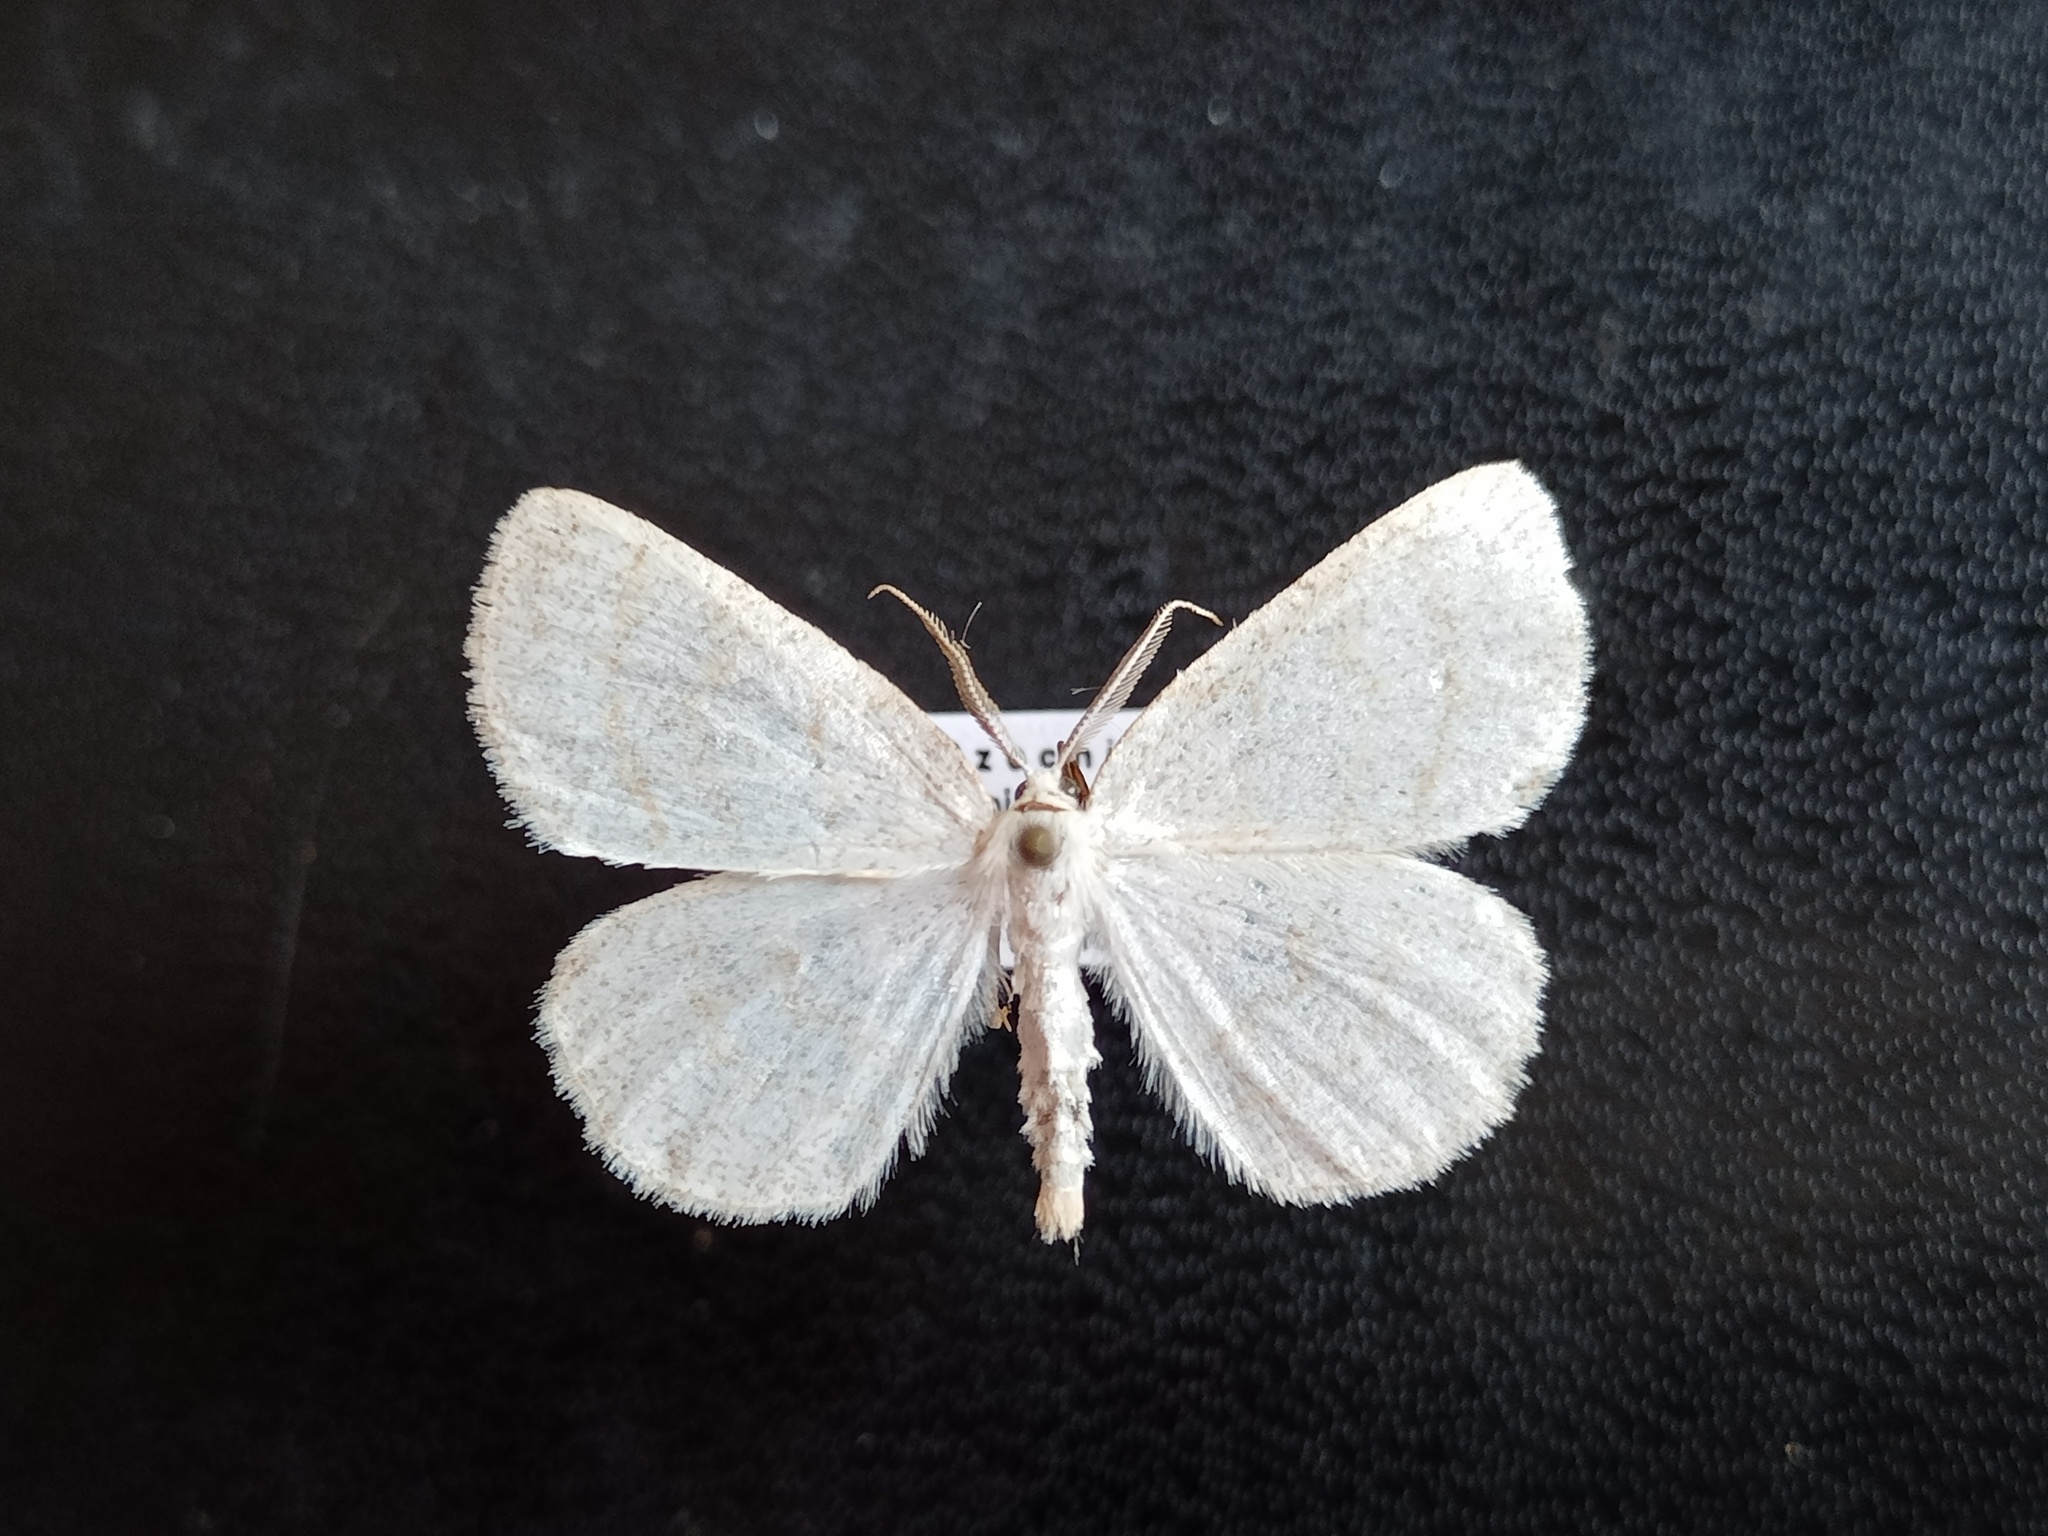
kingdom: Animalia
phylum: Arthropoda
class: Insecta
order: Lepidoptera
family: Geometridae
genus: Cabera
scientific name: Cabera exanthemata
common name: Common wave
